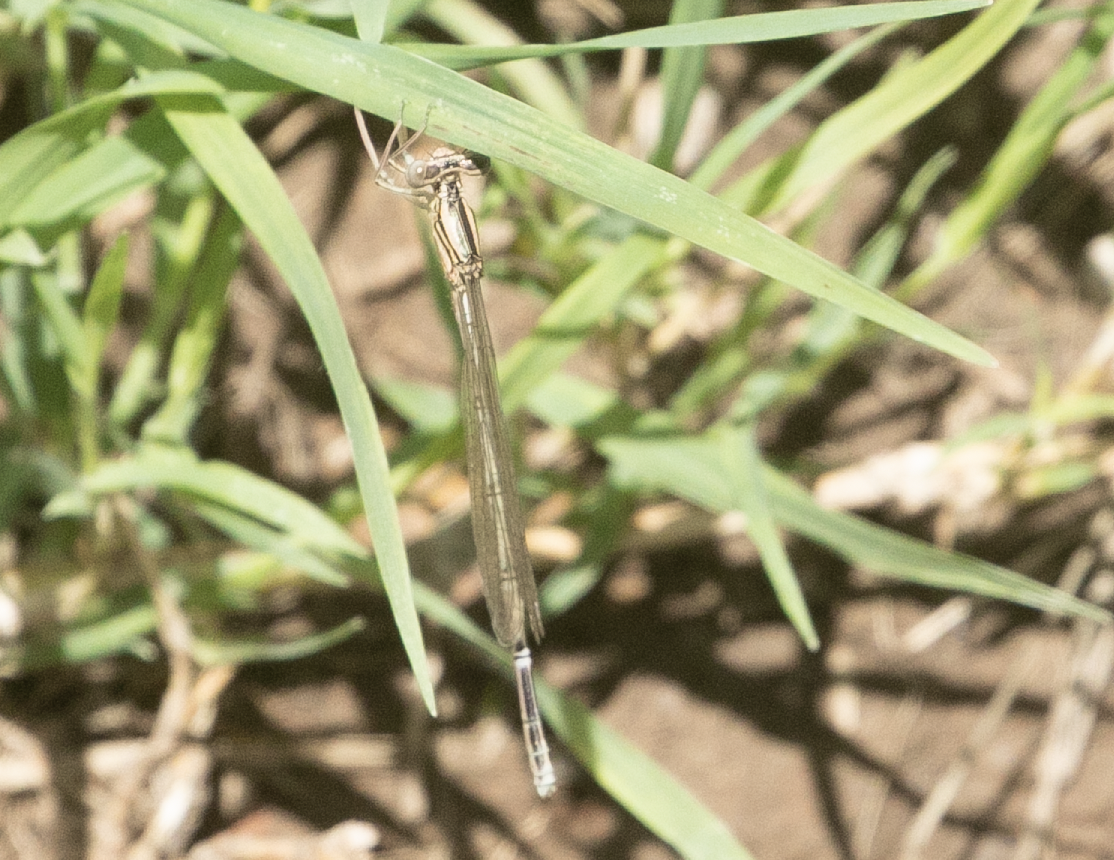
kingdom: Animalia
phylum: Arthropoda
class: Insecta
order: Odonata
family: Platycnemididae
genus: Platycnemis
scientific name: Platycnemis pennipes
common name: White-legged damselfly
